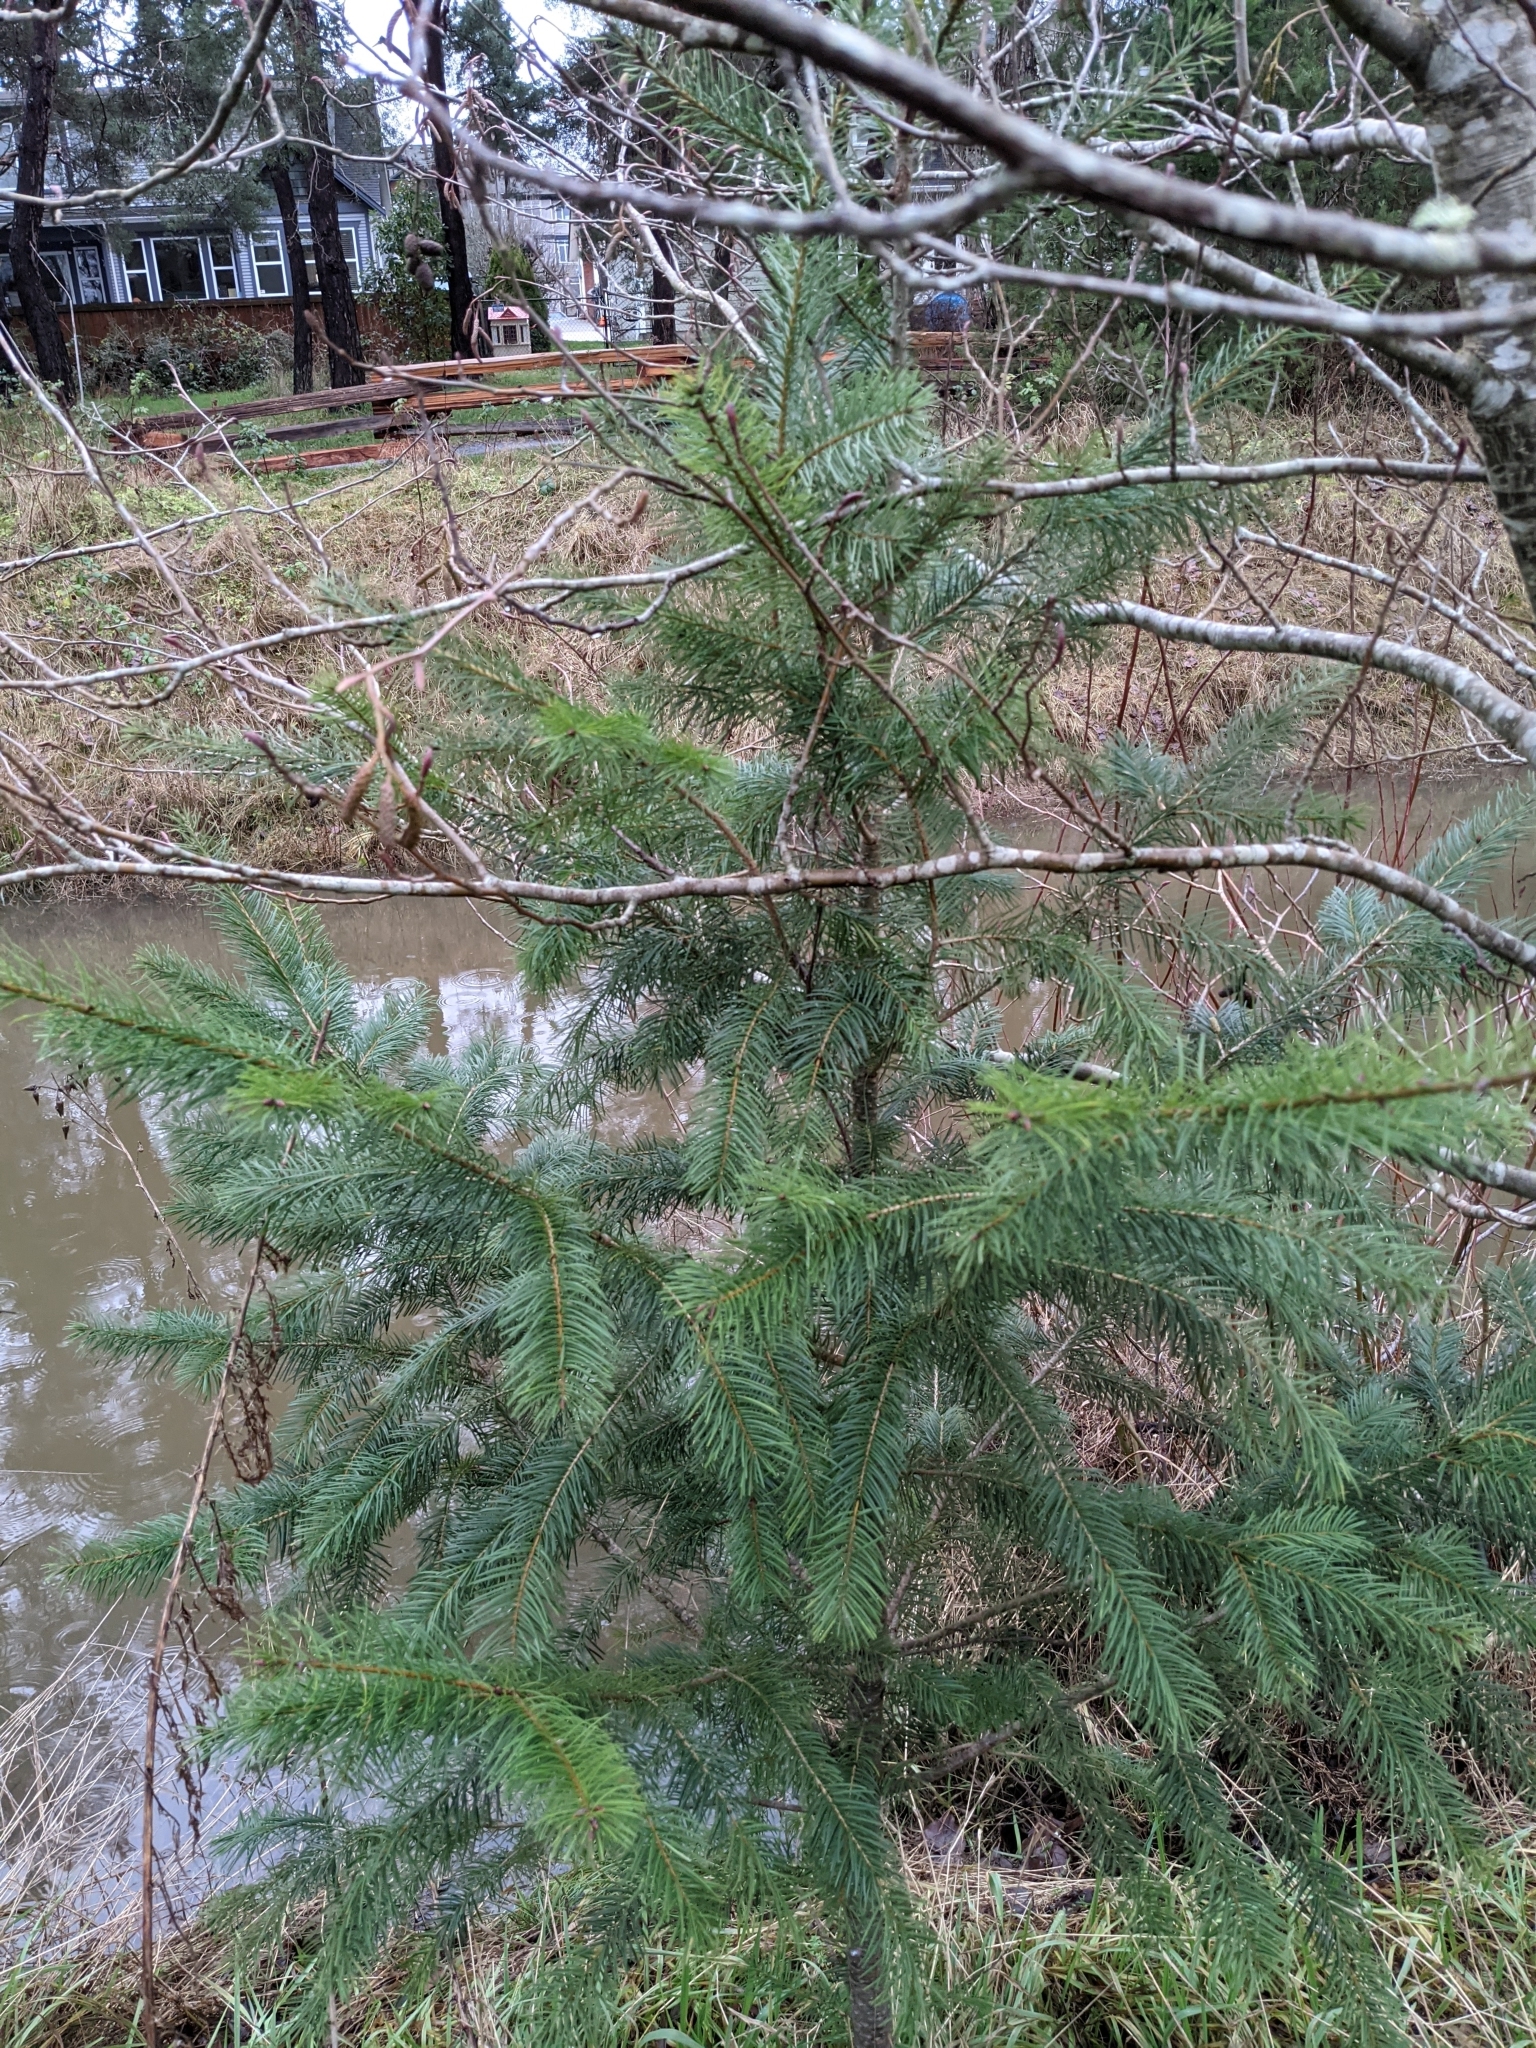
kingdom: Plantae
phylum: Tracheophyta
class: Pinopsida
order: Pinales
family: Pinaceae
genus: Pseudotsuga
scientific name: Pseudotsuga menziesii
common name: Douglas fir
